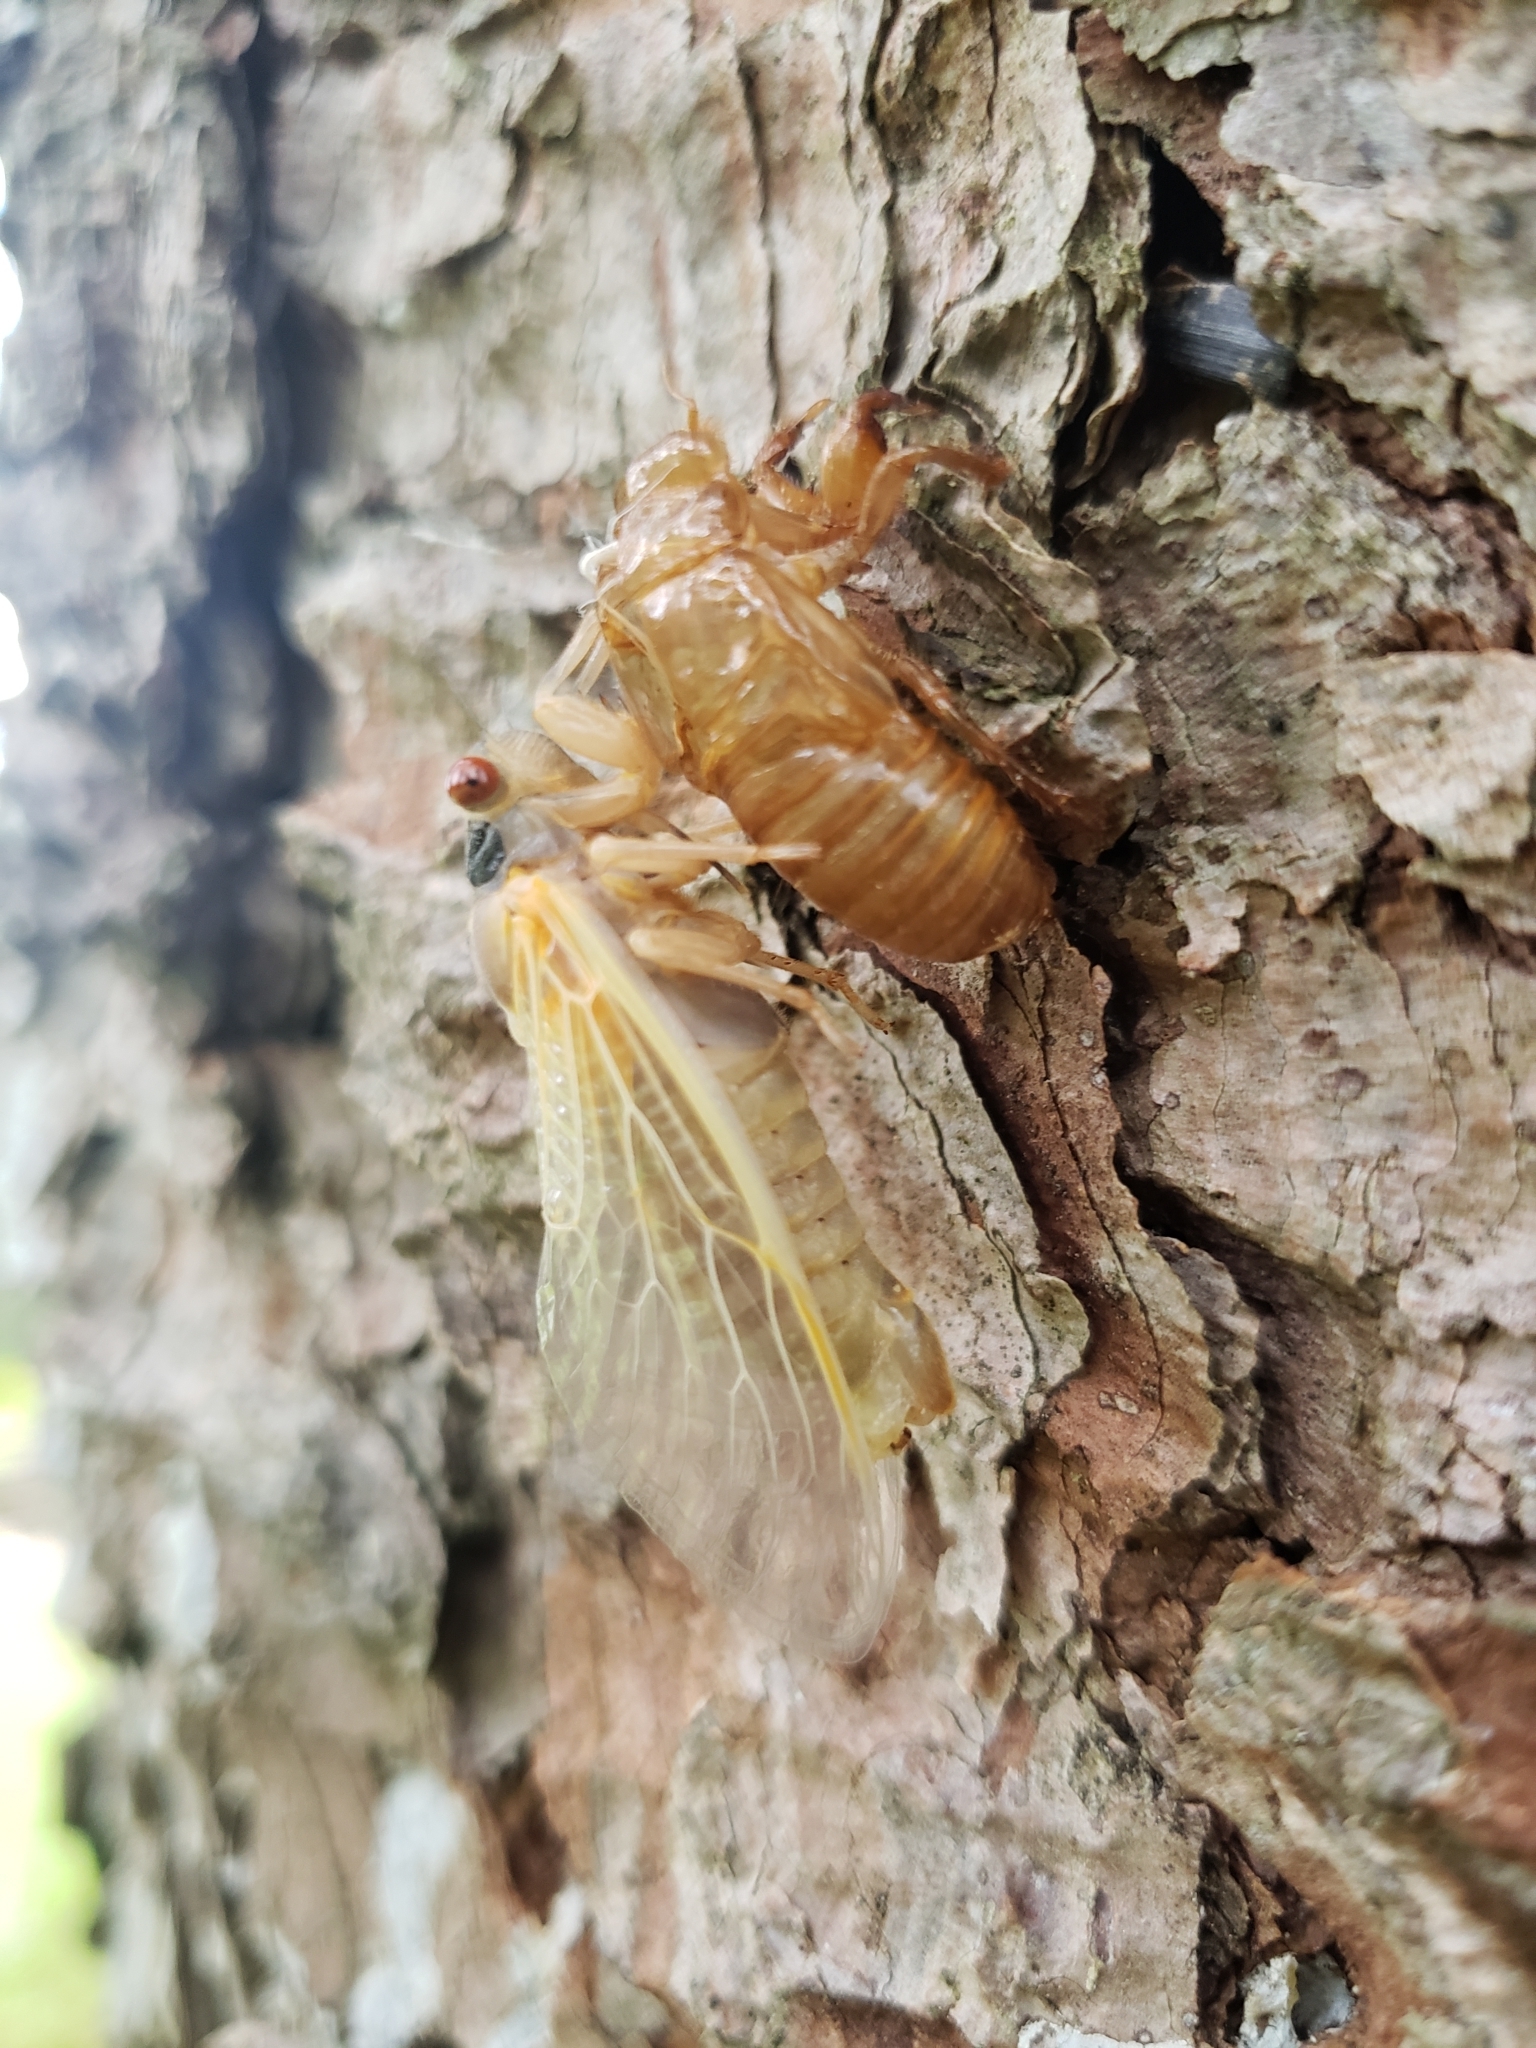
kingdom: Animalia
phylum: Arthropoda
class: Insecta
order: Hemiptera
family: Cicadidae
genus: Magicicada
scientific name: Magicicada
